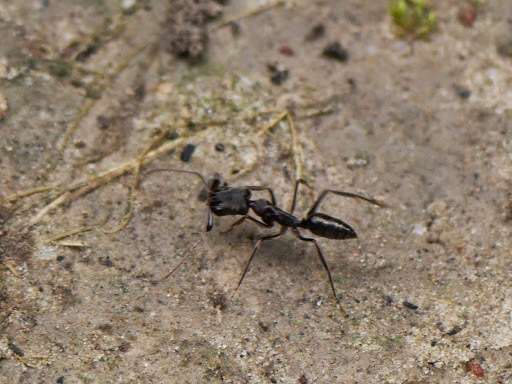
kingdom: Animalia
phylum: Arthropoda
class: Insecta
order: Hymenoptera
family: Formicidae
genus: Odontomachus
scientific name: Odontomachus troglodytes
